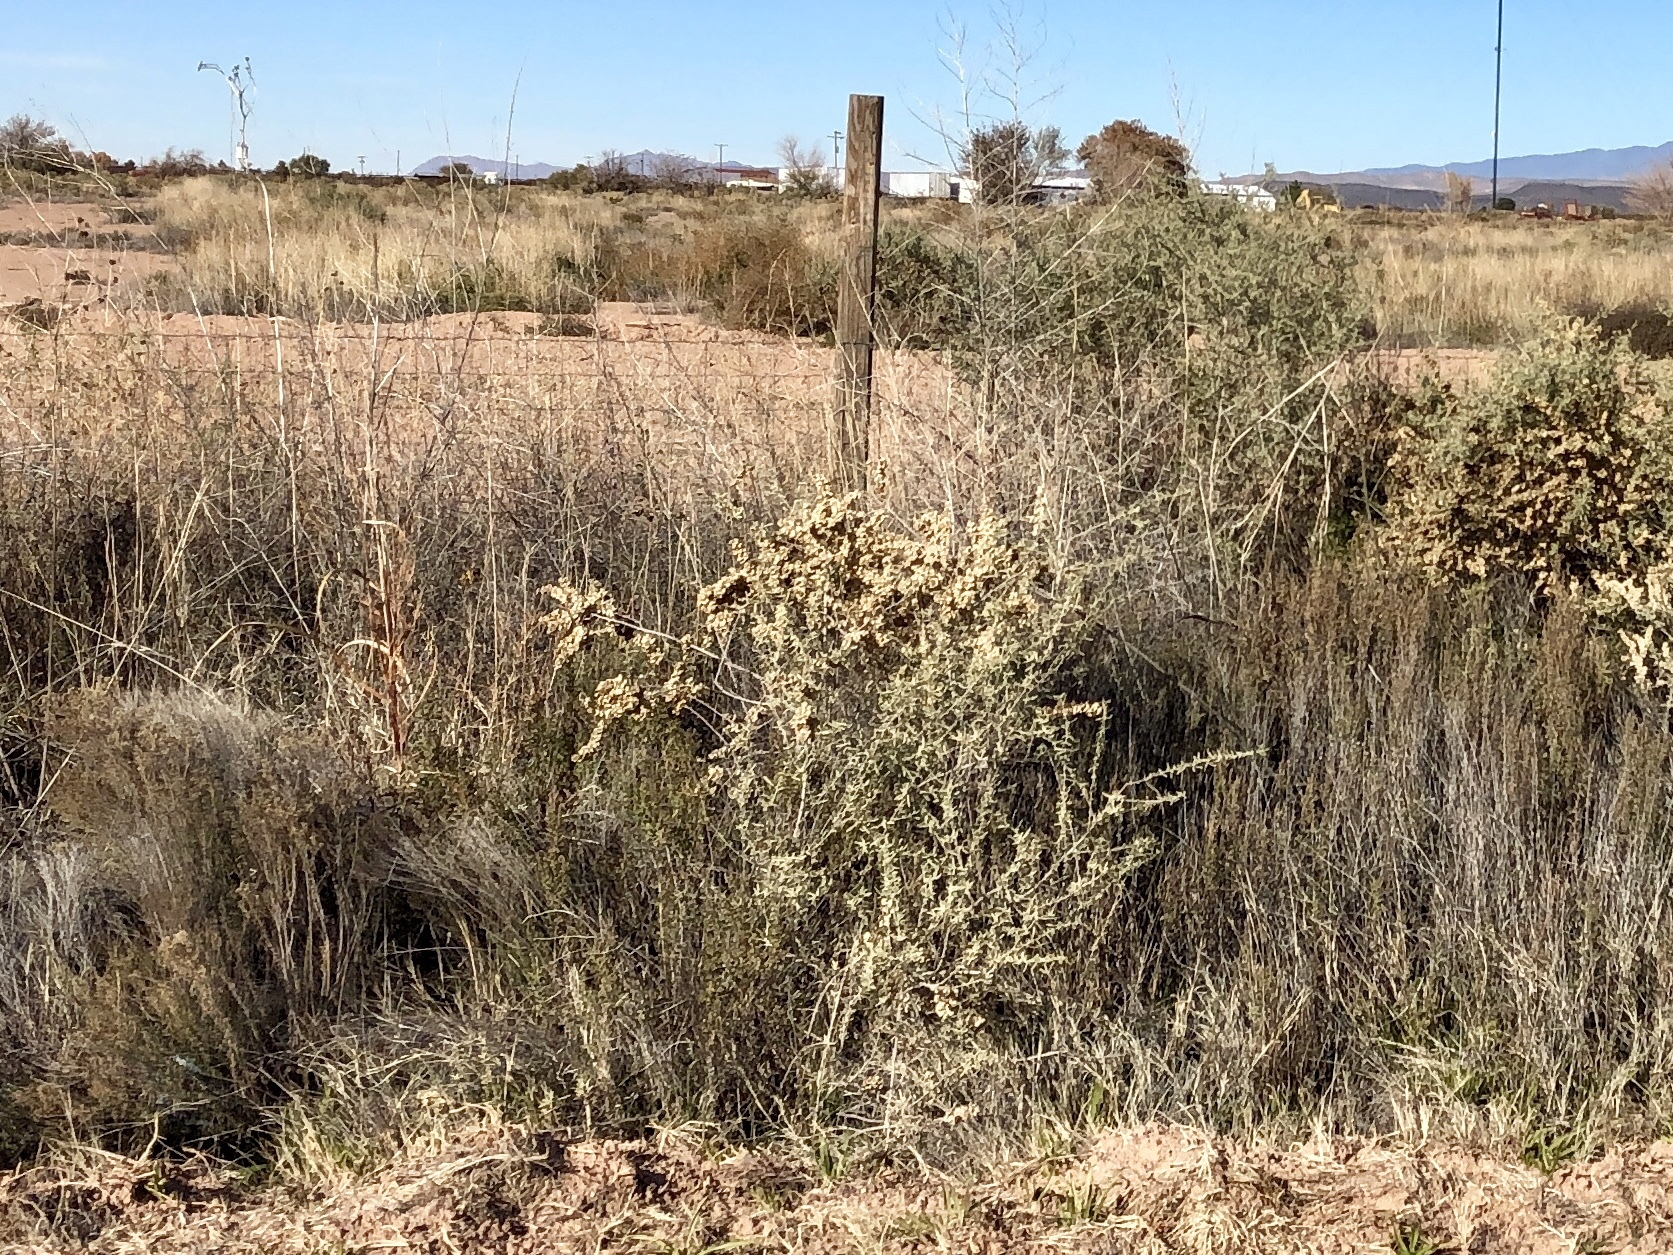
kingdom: Plantae
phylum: Tracheophyta
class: Magnoliopsida
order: Caryophyllales
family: Amaranthaceae
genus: Atriplex
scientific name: Atriplex canescens
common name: Four-wing saltbush
